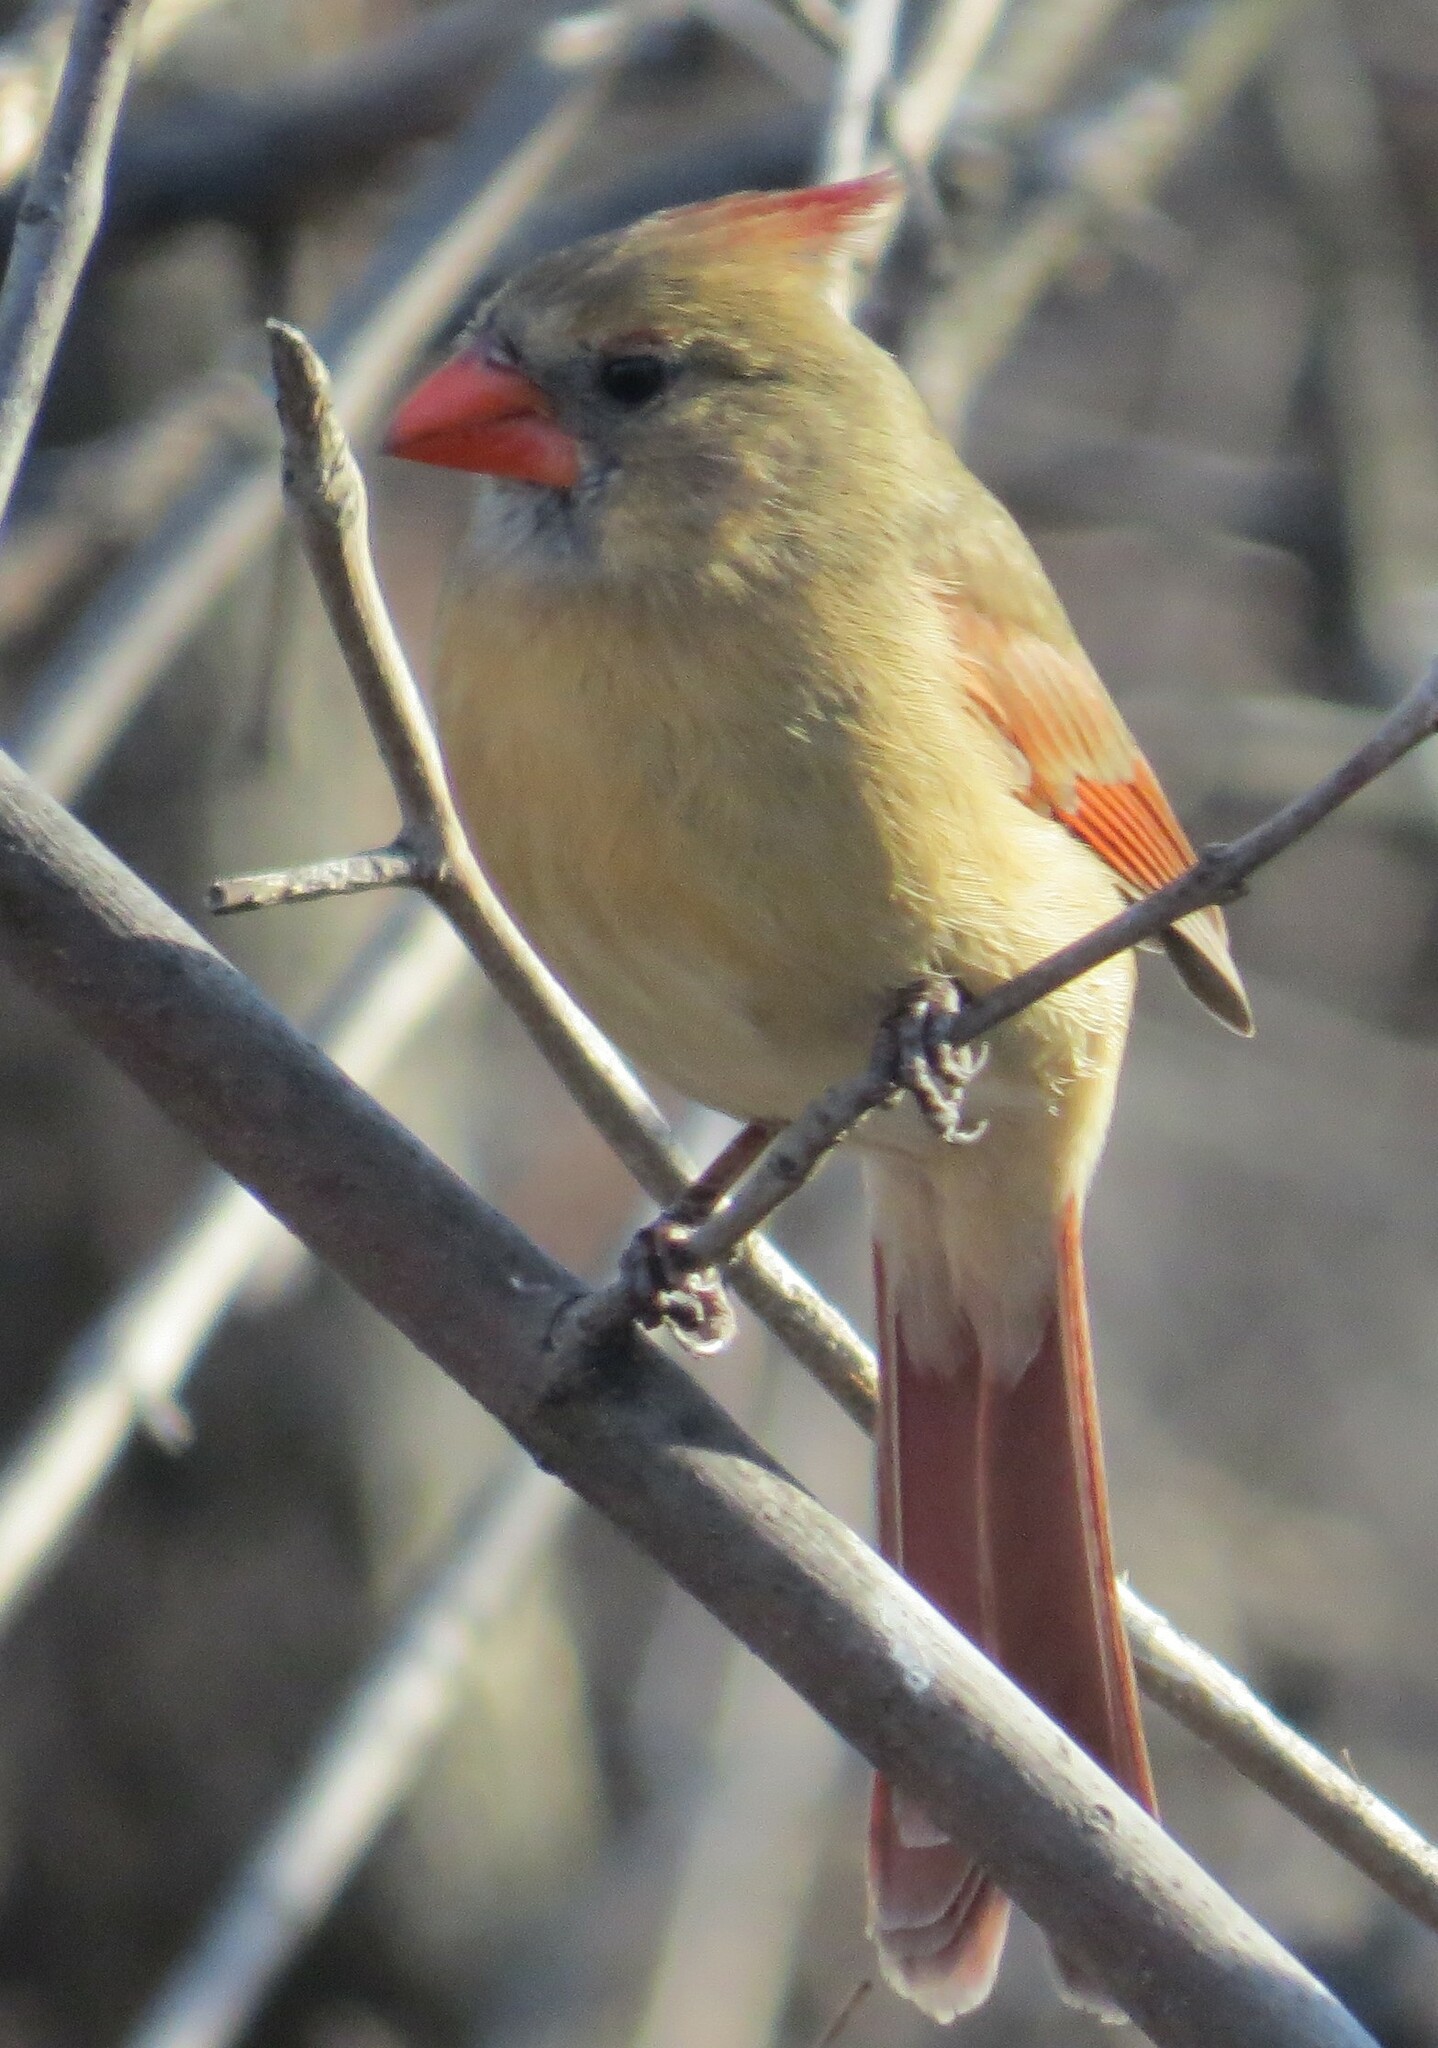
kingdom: Animalia
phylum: Chordata
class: Aves
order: Passeriformes
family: Cardinalidae
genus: Cardinalis
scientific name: Cardinalis cardinalis
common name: Northern cardinal
